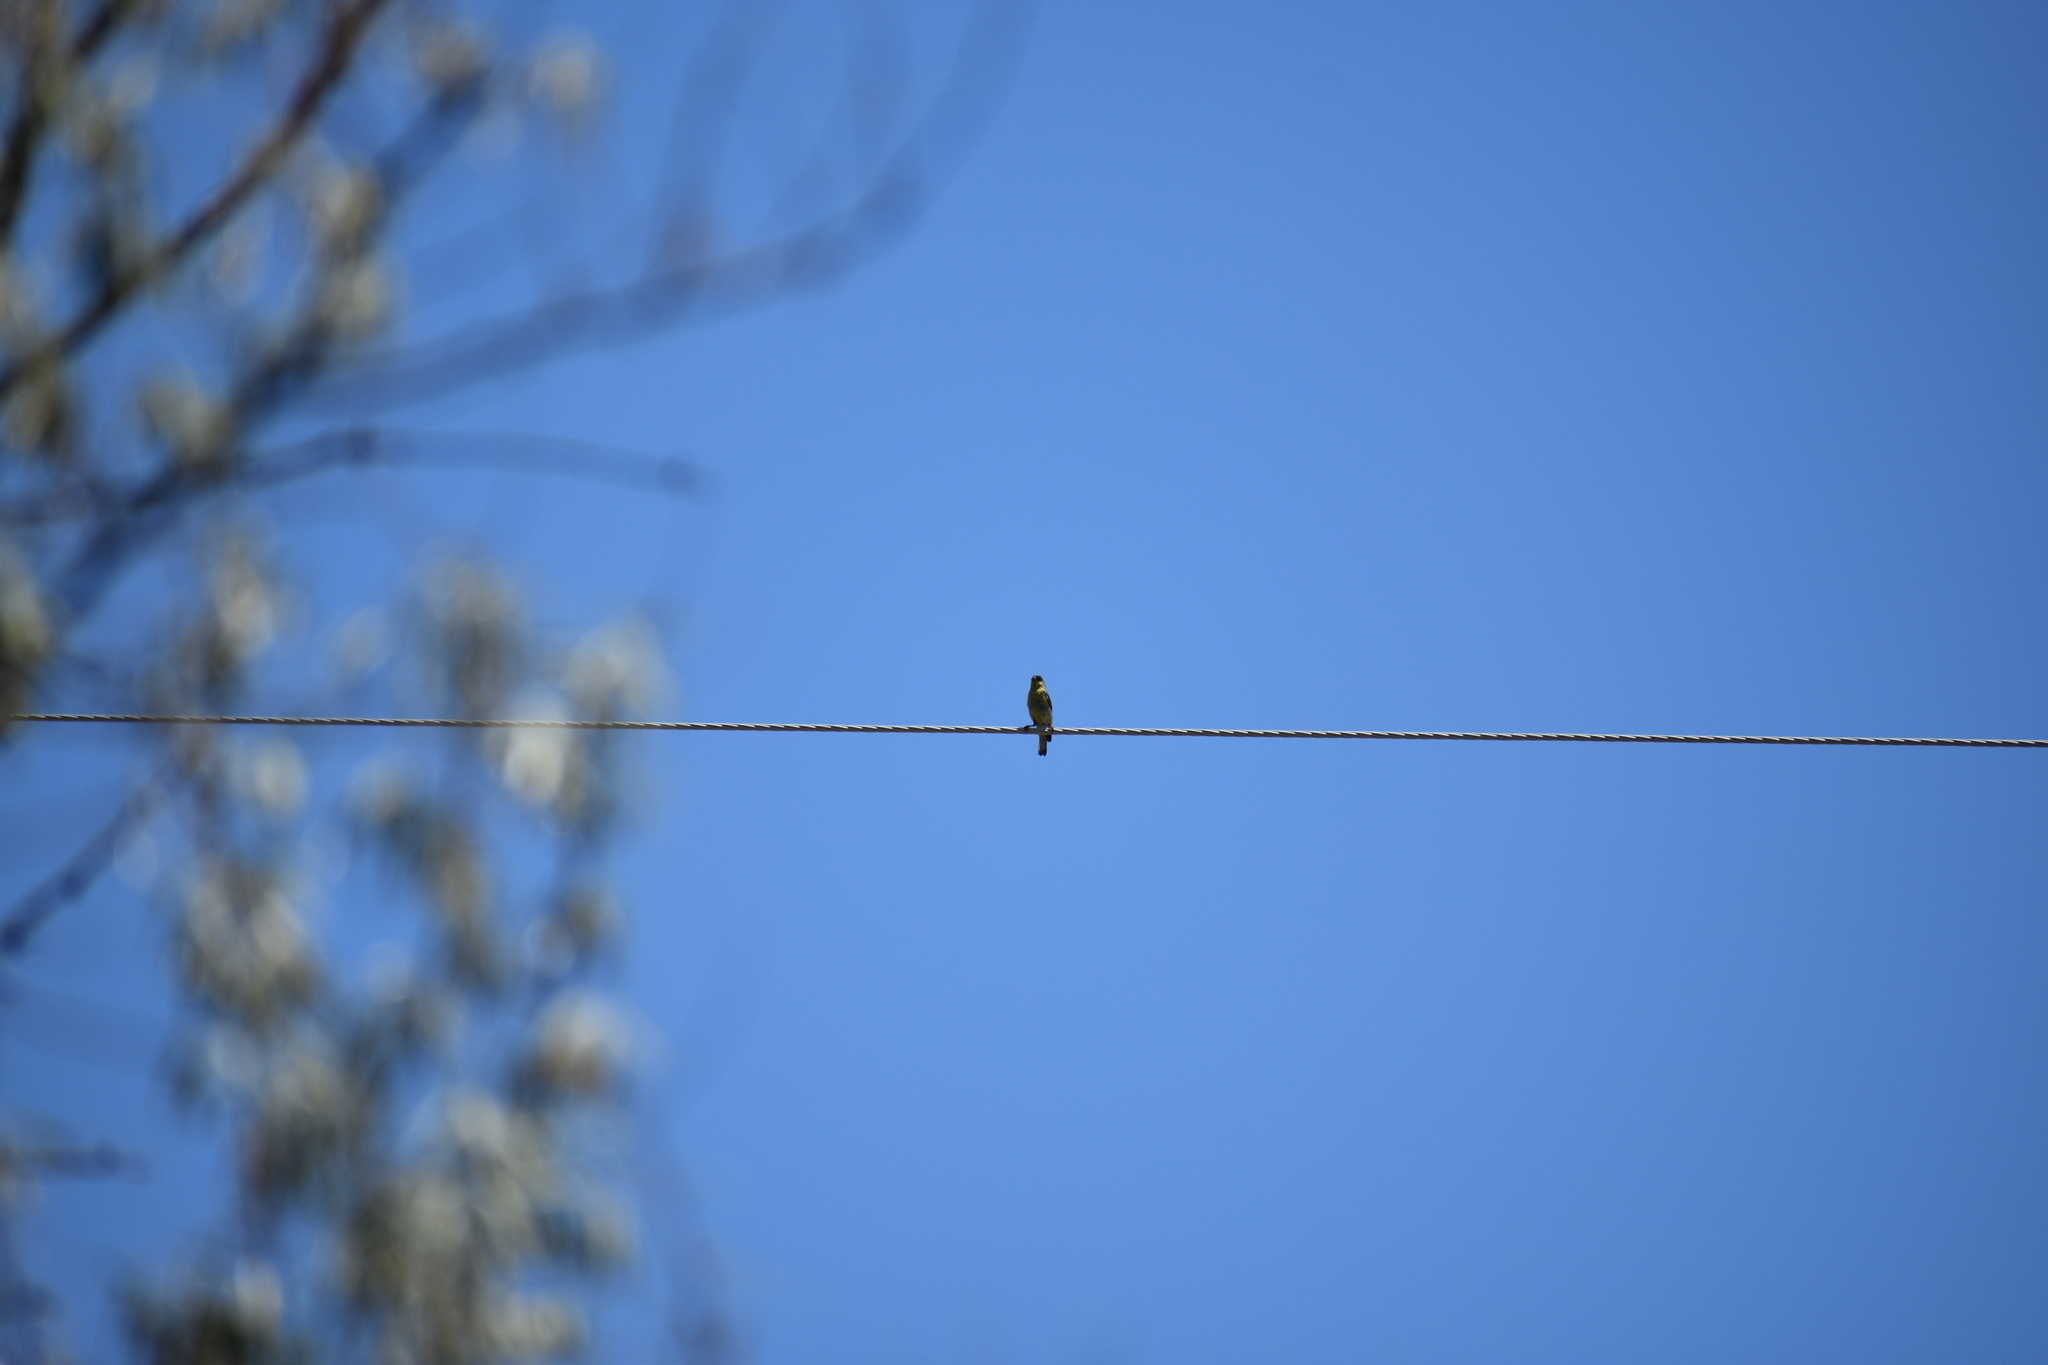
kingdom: Animalia
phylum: Chordata
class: Aves
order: Passeriformes
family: Fringillidae
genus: Spinus
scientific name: Spinus psaltria
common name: Lesser goldfinch
